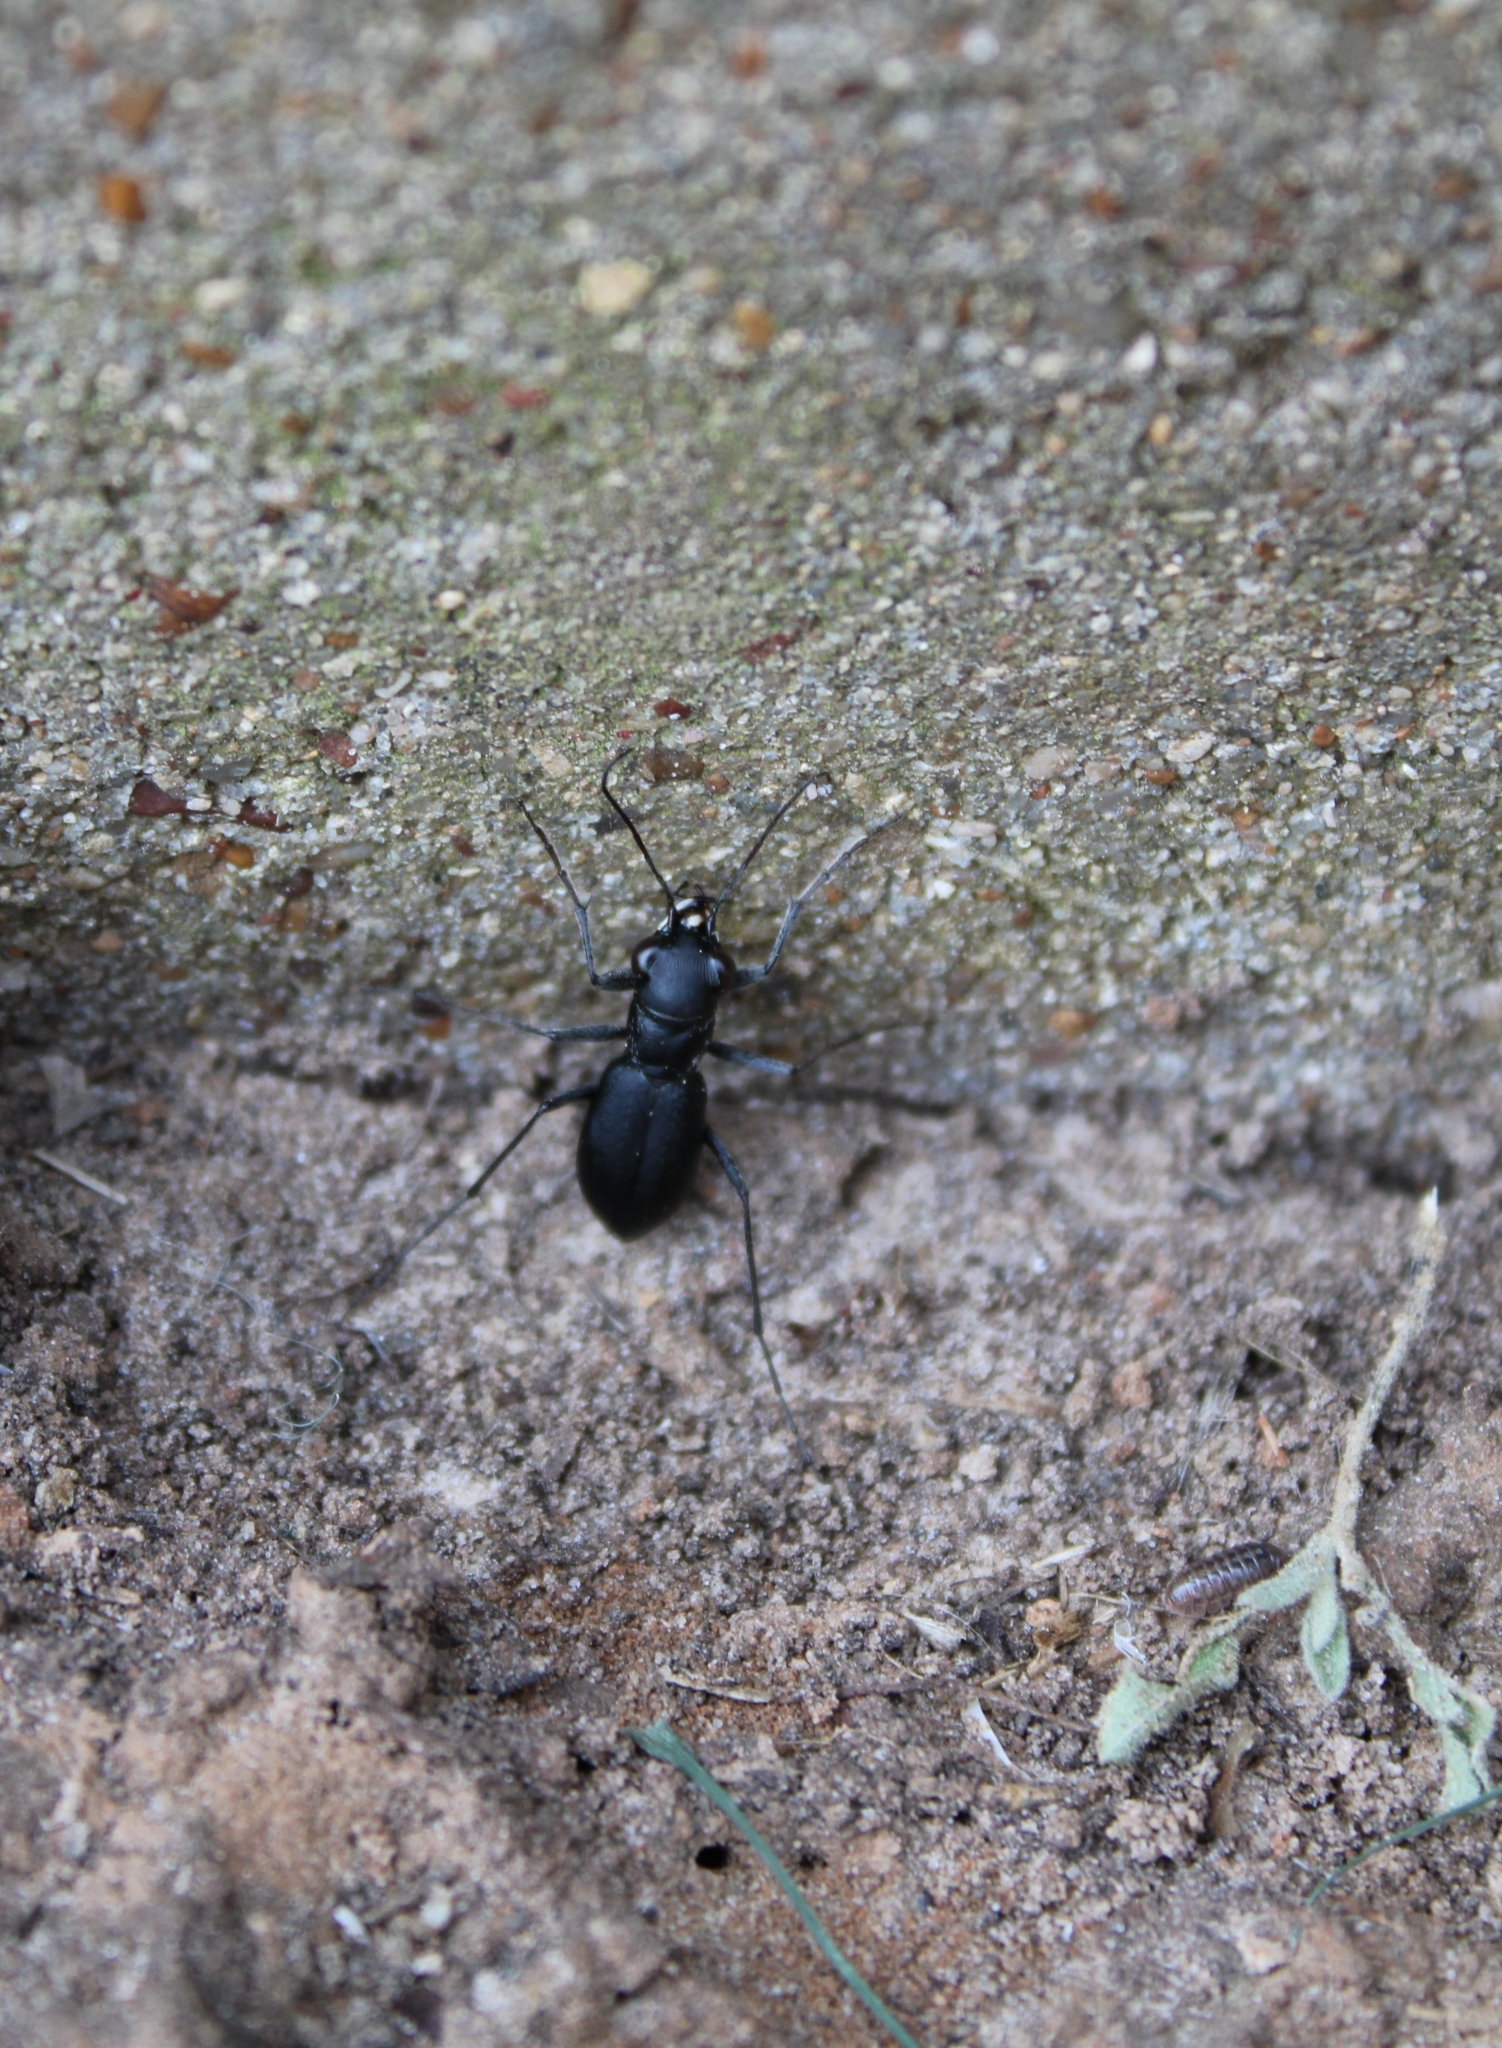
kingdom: Animalia
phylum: Arthropoda
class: Insecta
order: Coleoptera
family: Carabidae
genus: Dromochorus
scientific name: Dromochorus belfragei
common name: Loamy-ground dromo tiger beetle
